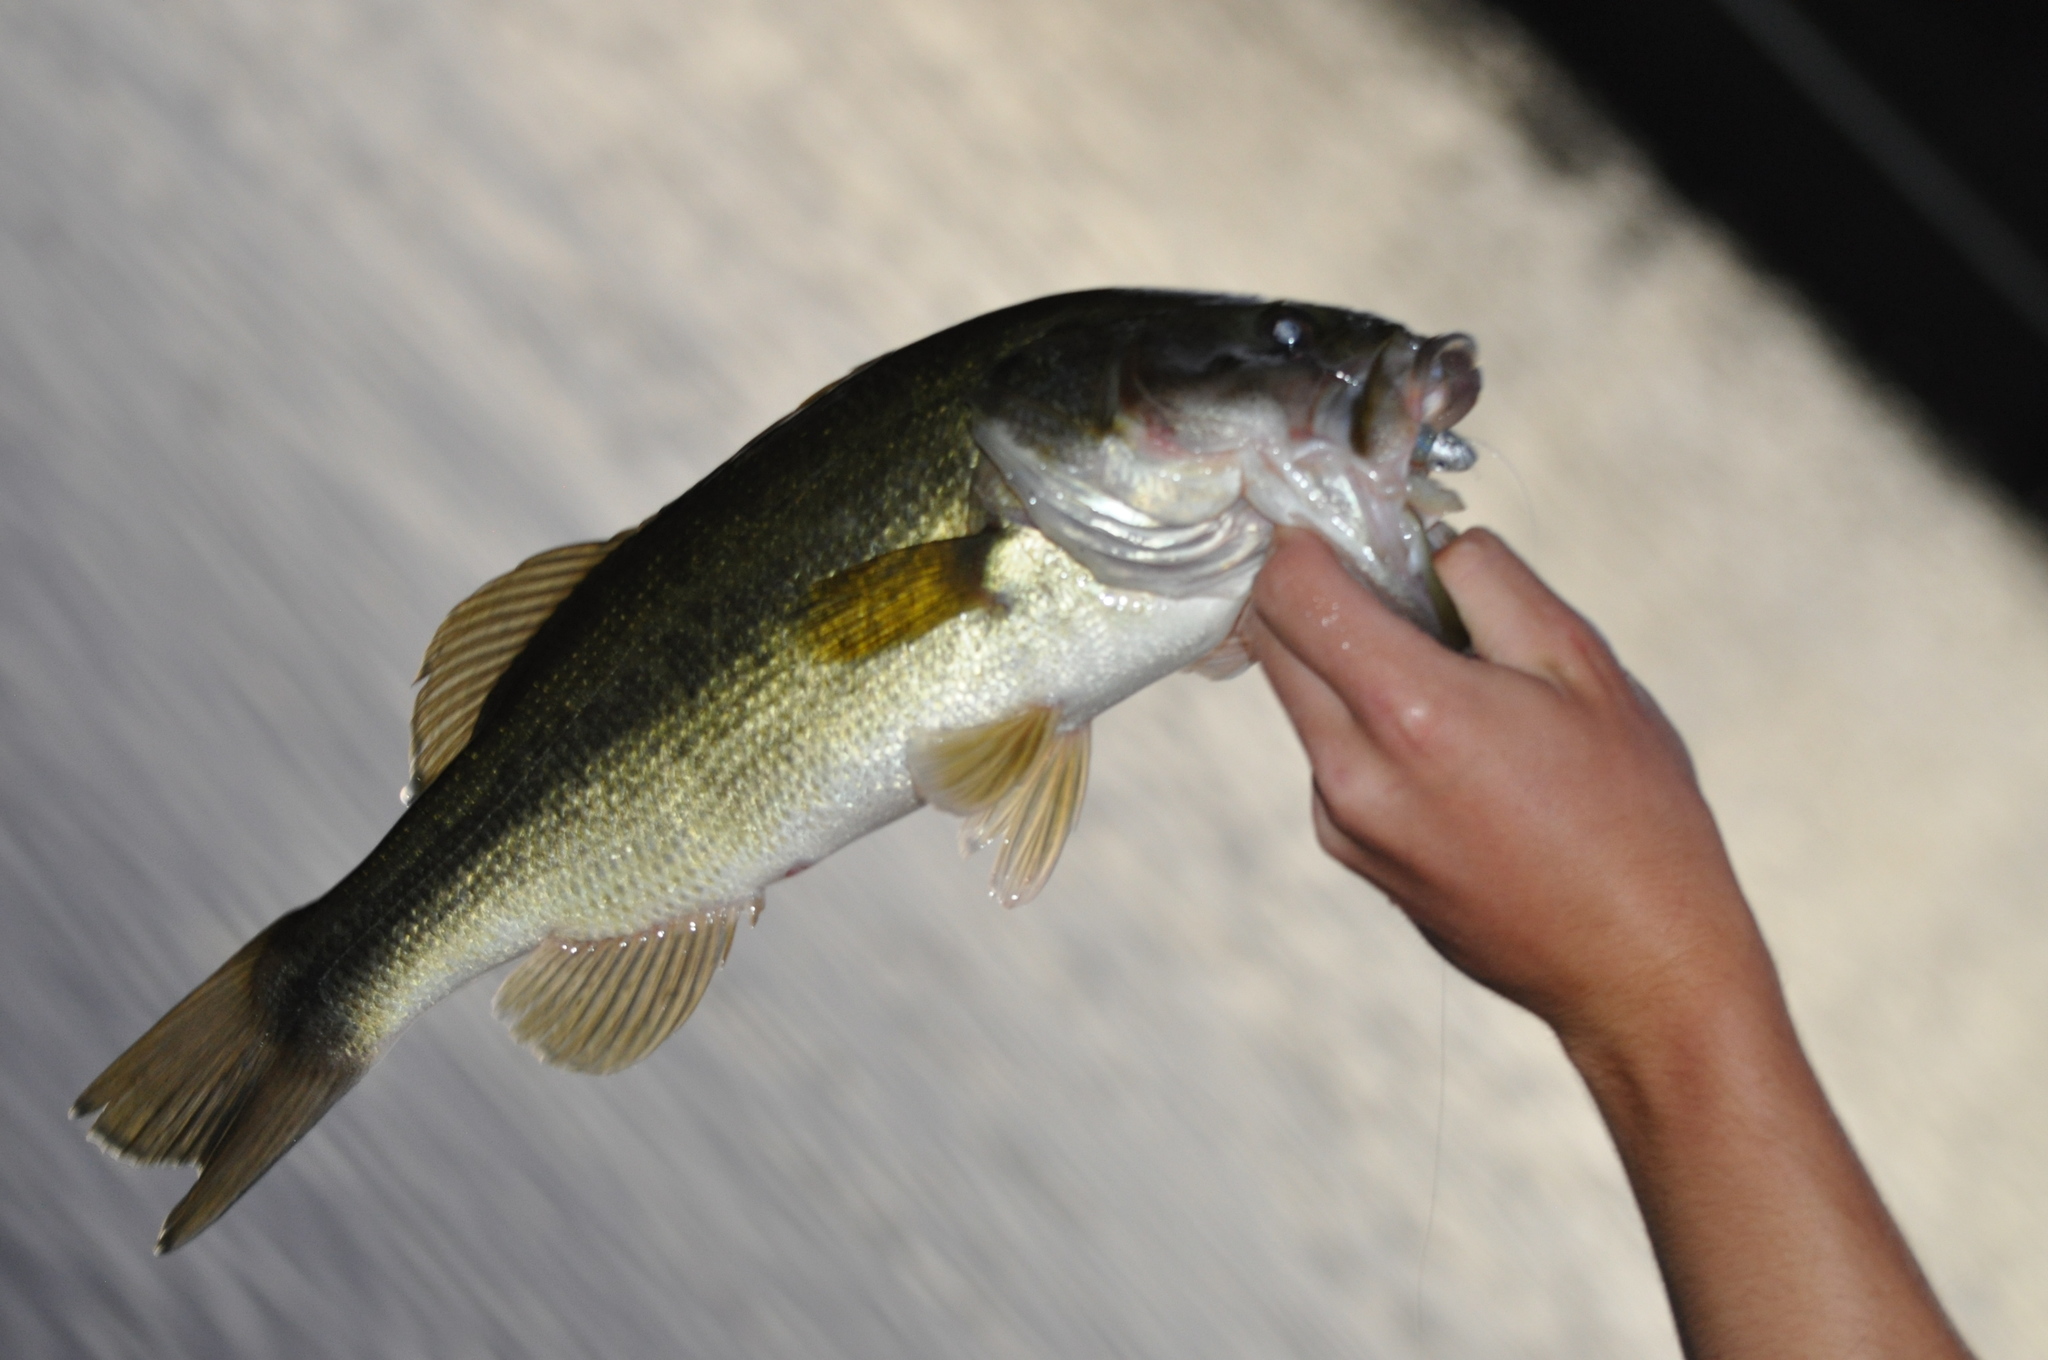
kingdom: Animalia
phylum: Chordata
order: Perciformes
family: Centrarchidae
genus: Micropterus
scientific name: Micropterus
